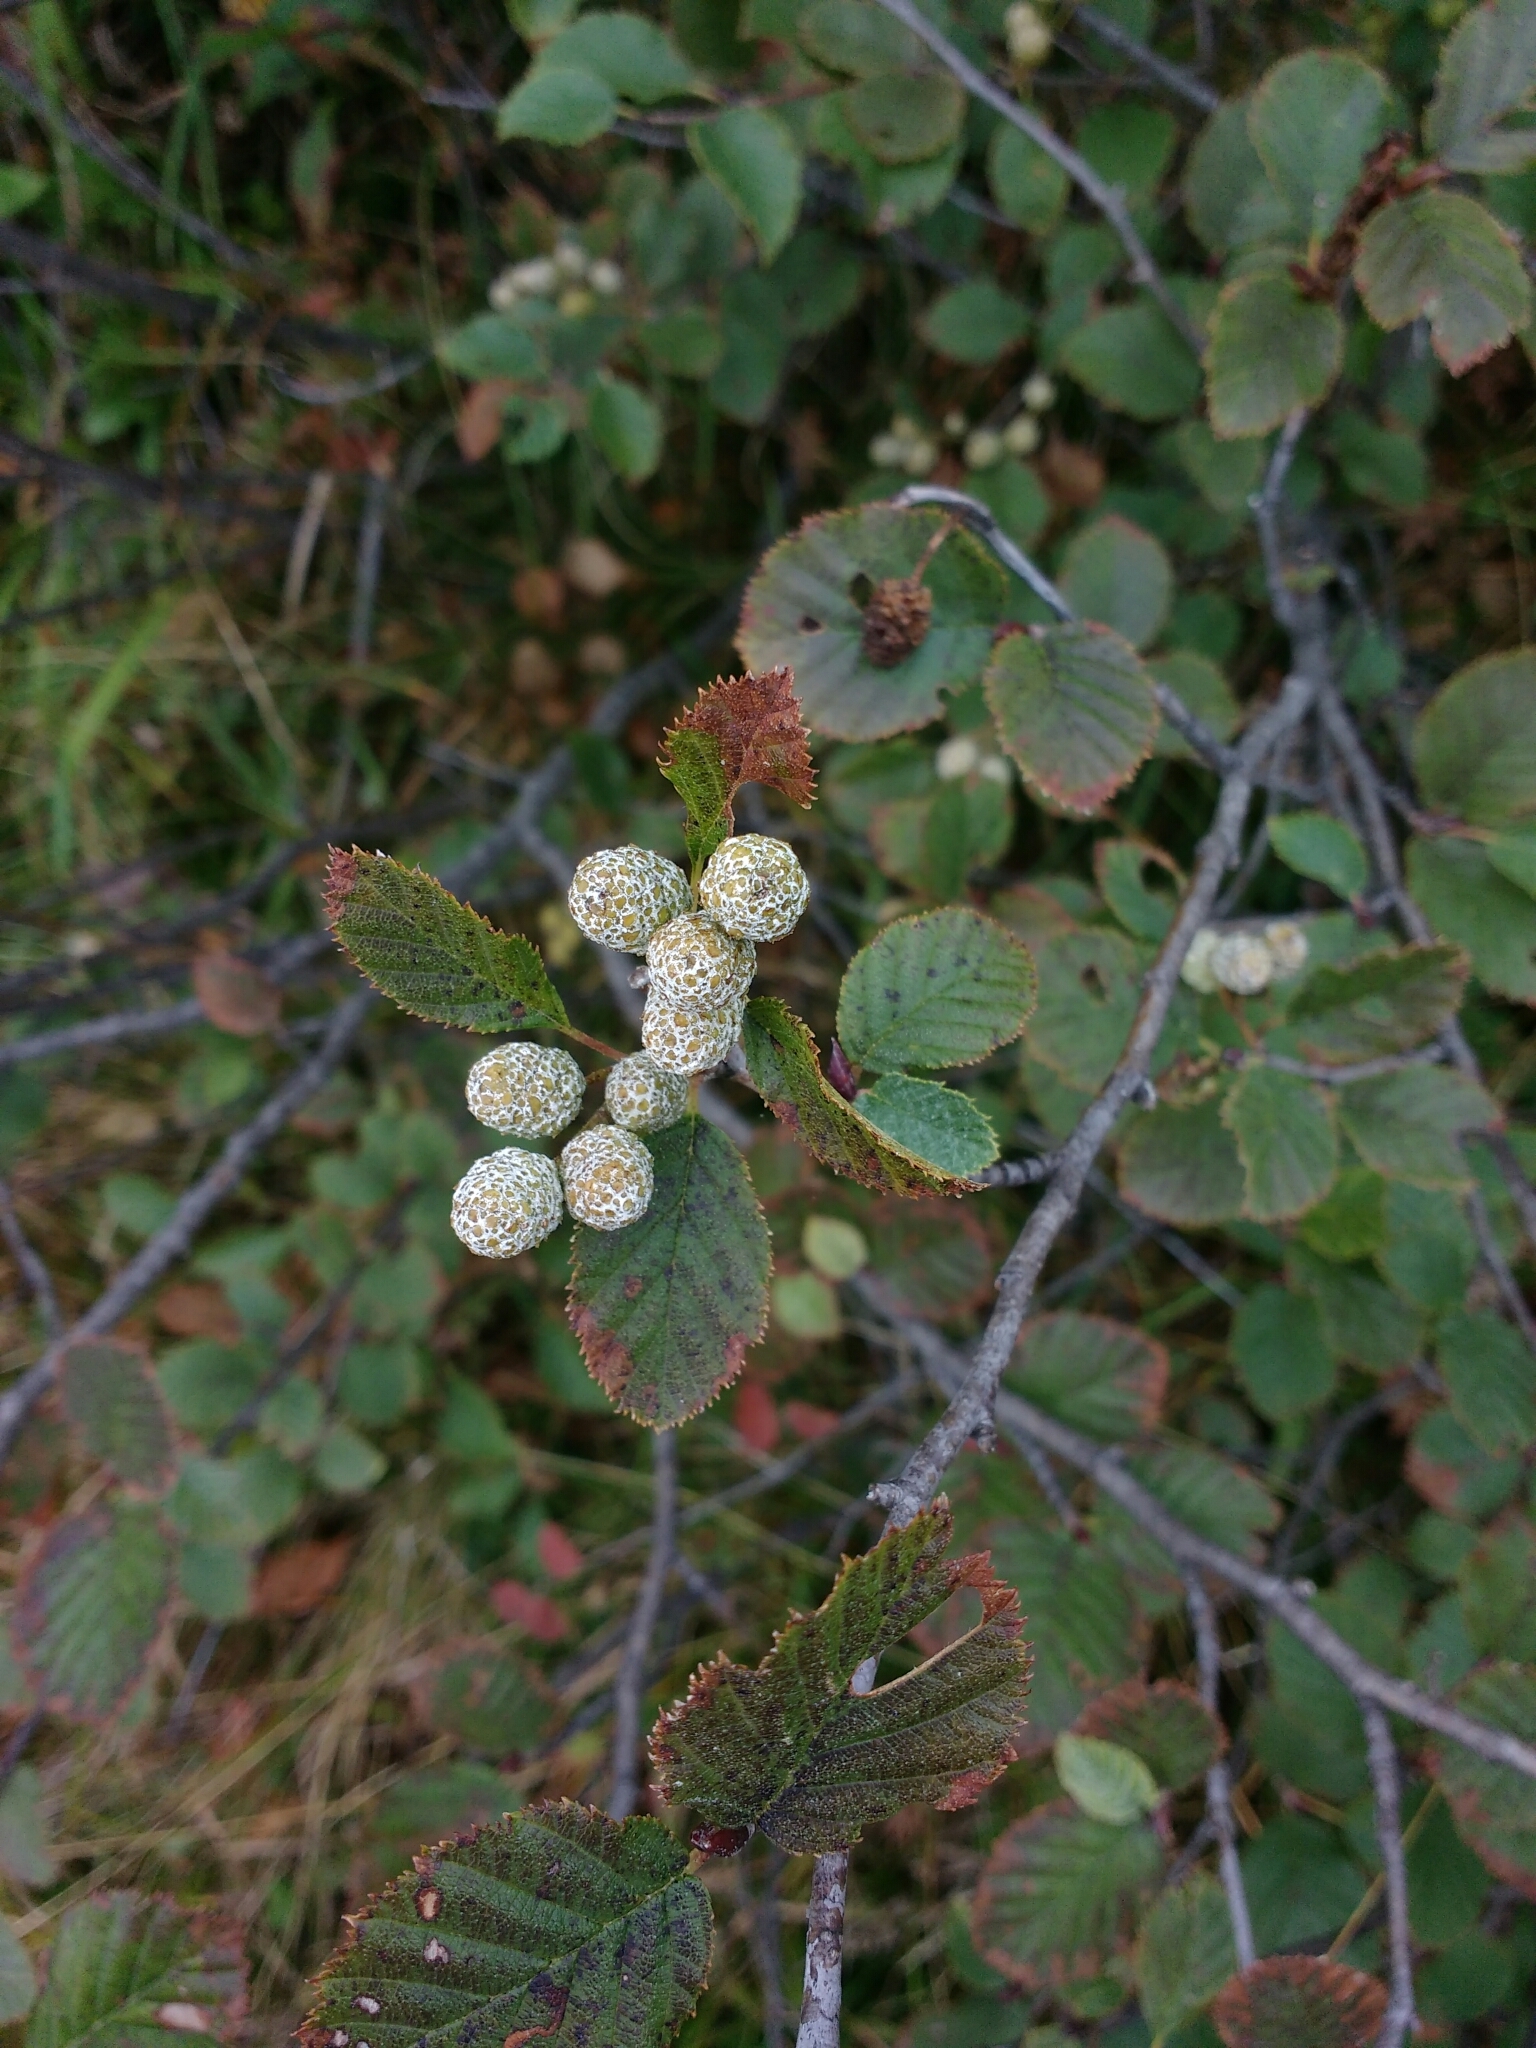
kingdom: Plantae
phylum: Tracheophyta
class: Magnoliopsida
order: Fagales
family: Betulaceae
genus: Alnus
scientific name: Alnus alnobetula
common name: Green alder
